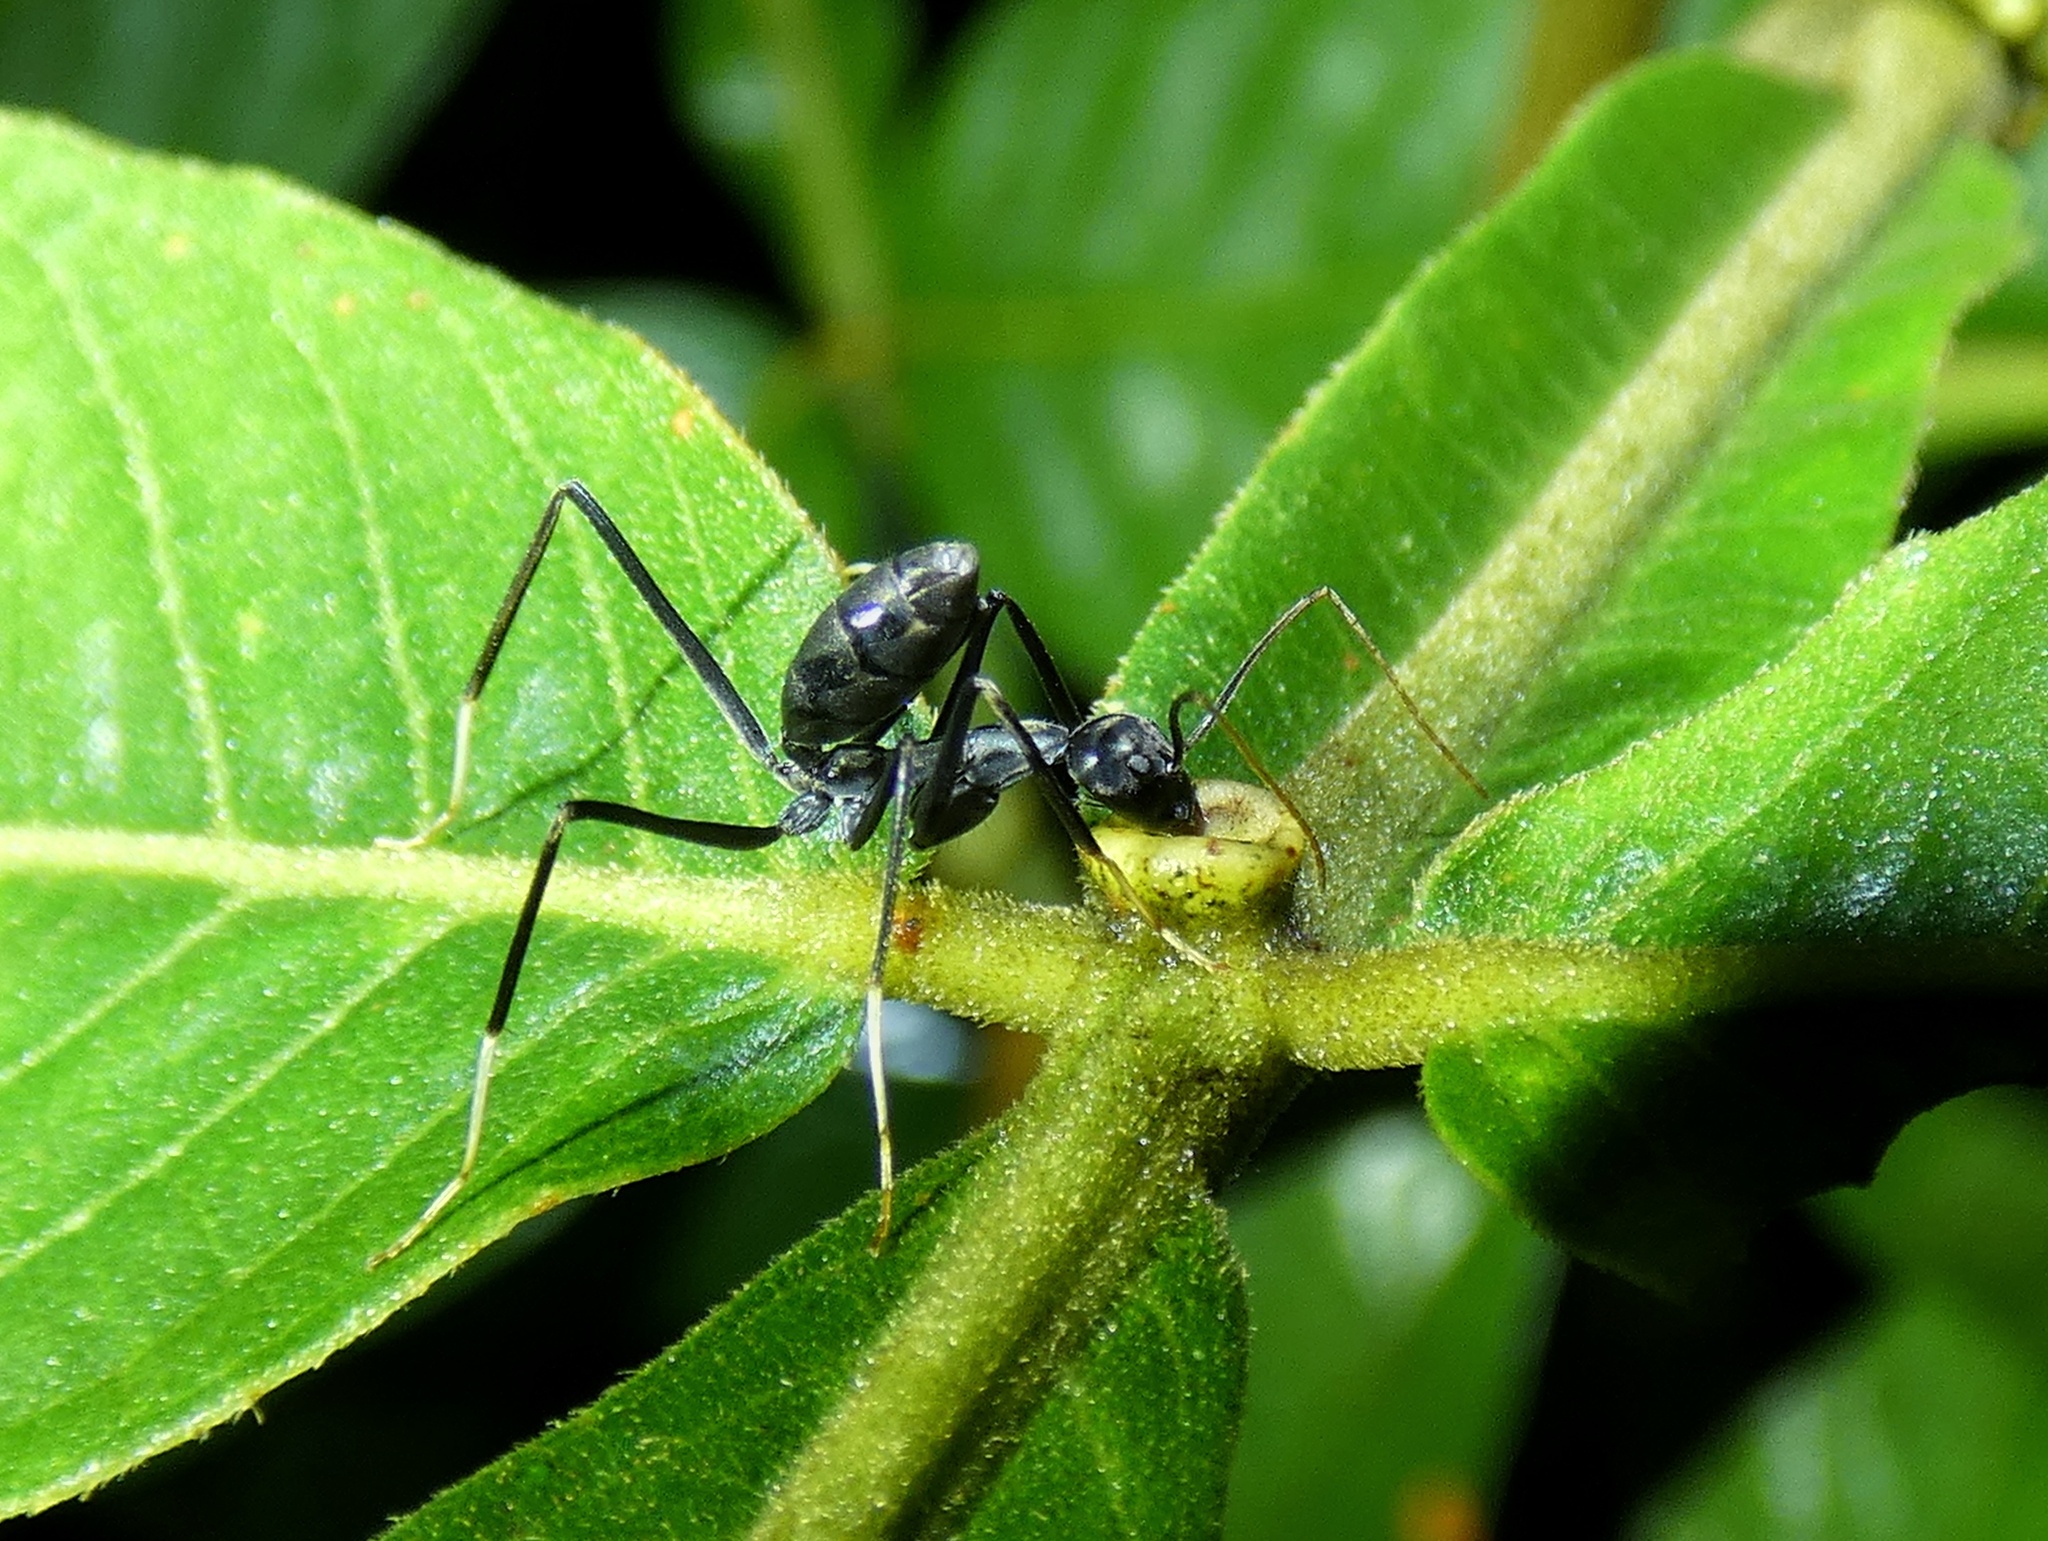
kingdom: Animalia
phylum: Arthropoda
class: Insecta
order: Hymenoptera
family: Formicidae
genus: Leptomyrmex
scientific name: Leptomyrmex unicolor
